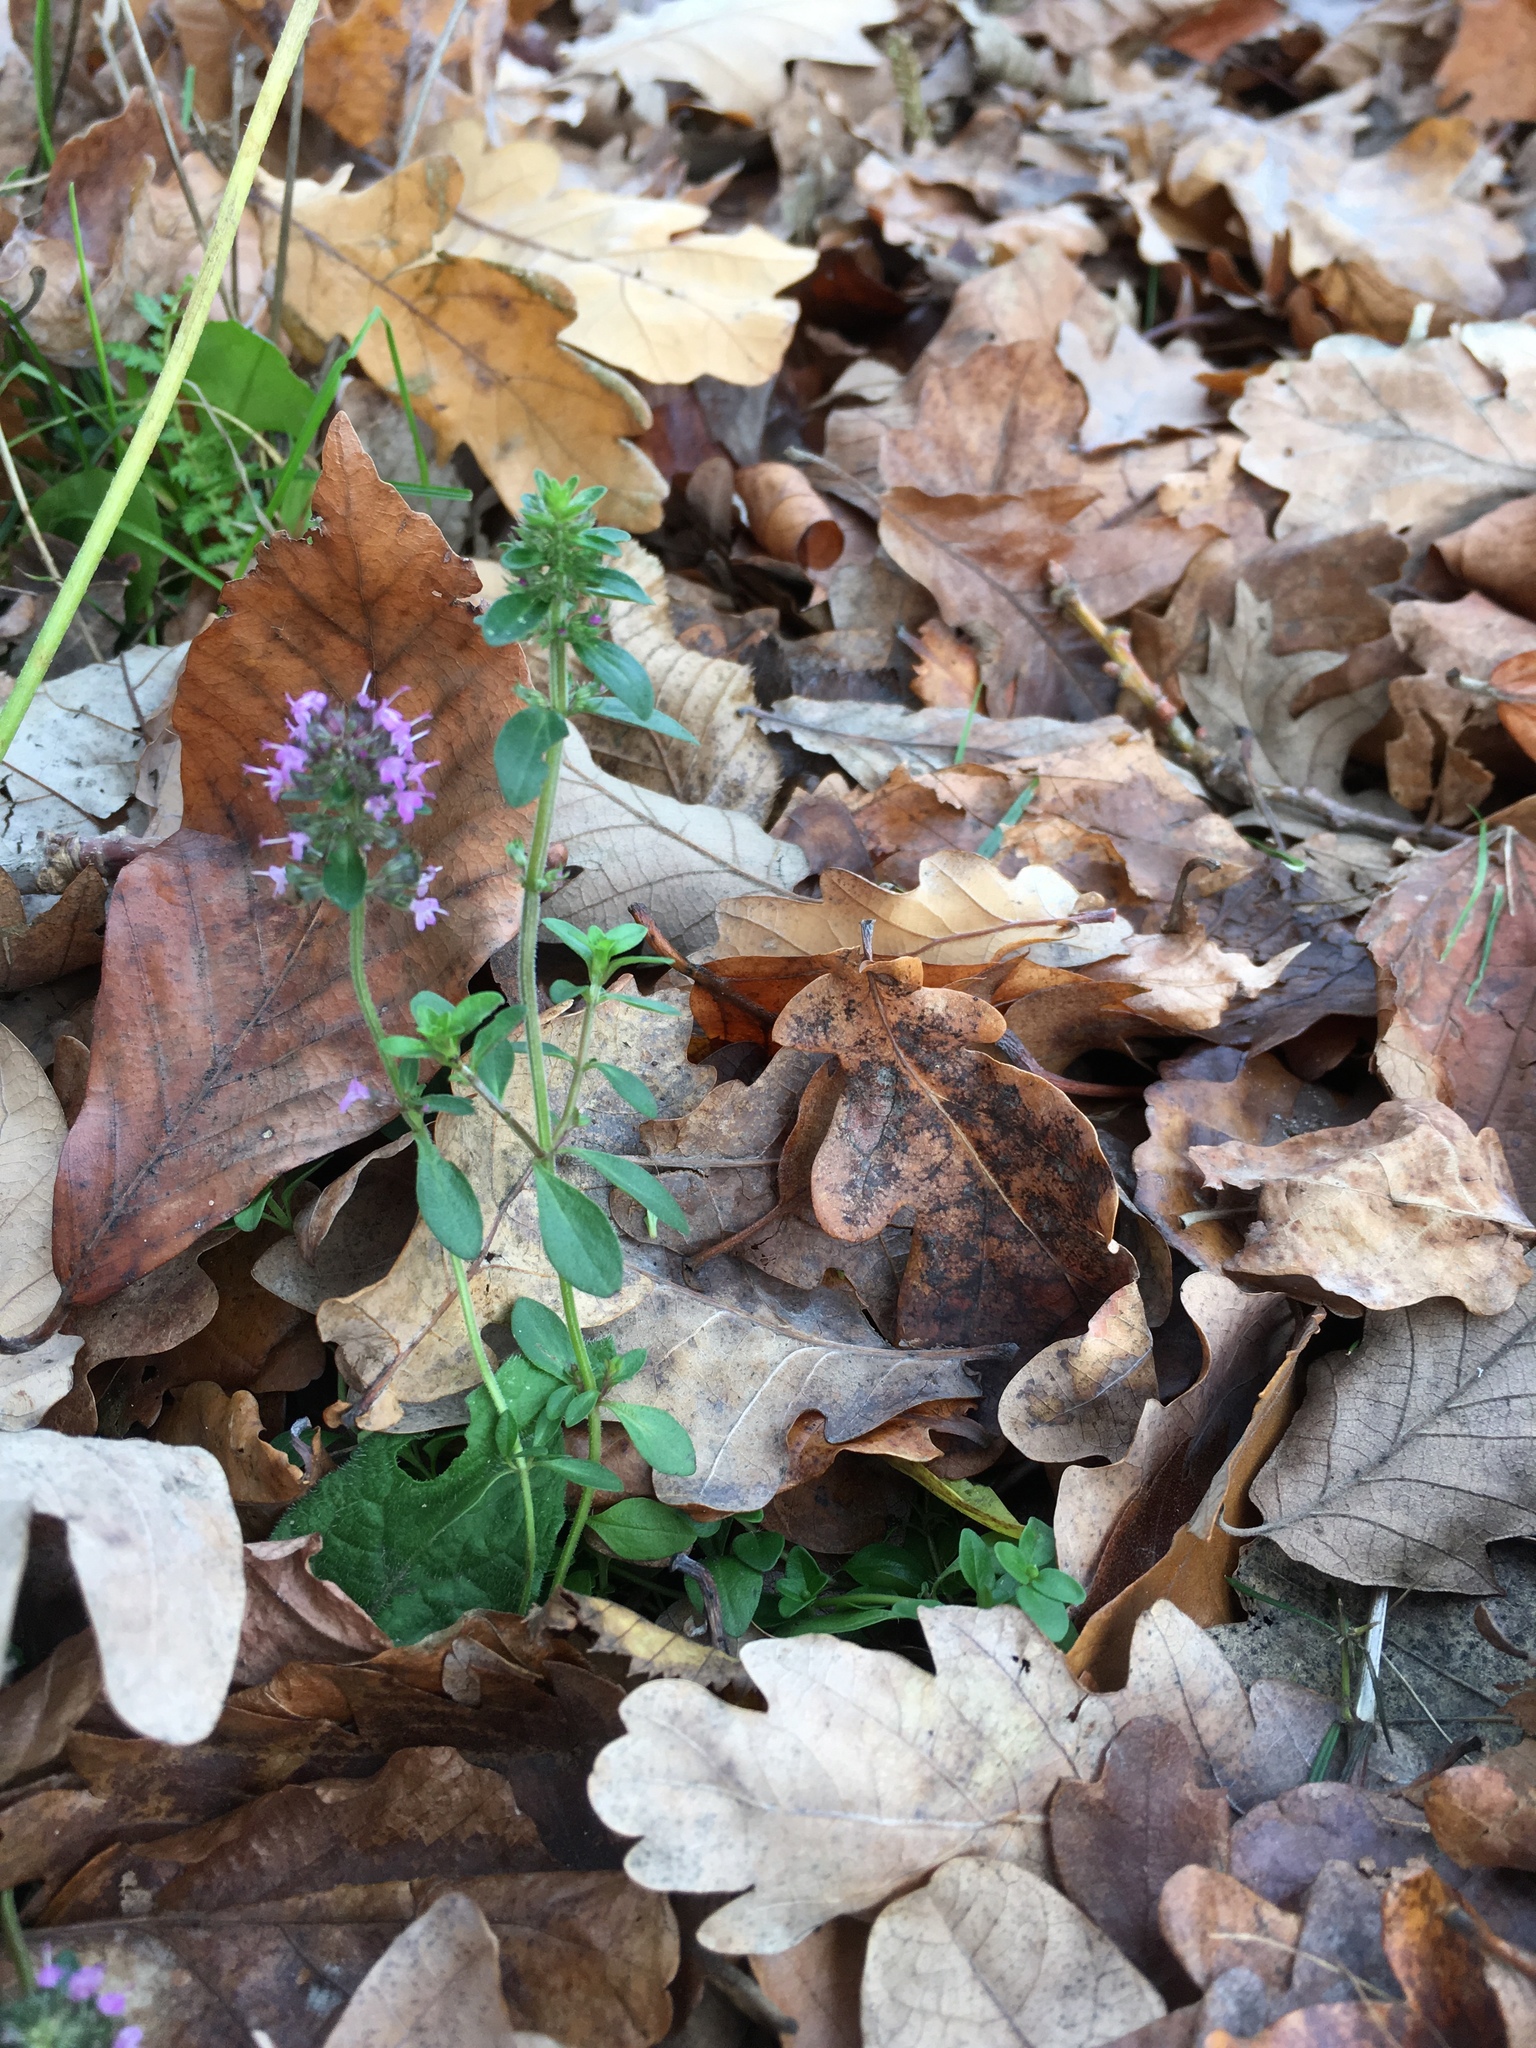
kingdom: Plantae
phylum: Tracheophyta
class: Magnoliopsida
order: Lamiales
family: Lamiaceae
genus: Thymus
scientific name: Thymus pulegioides
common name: Large thyme
